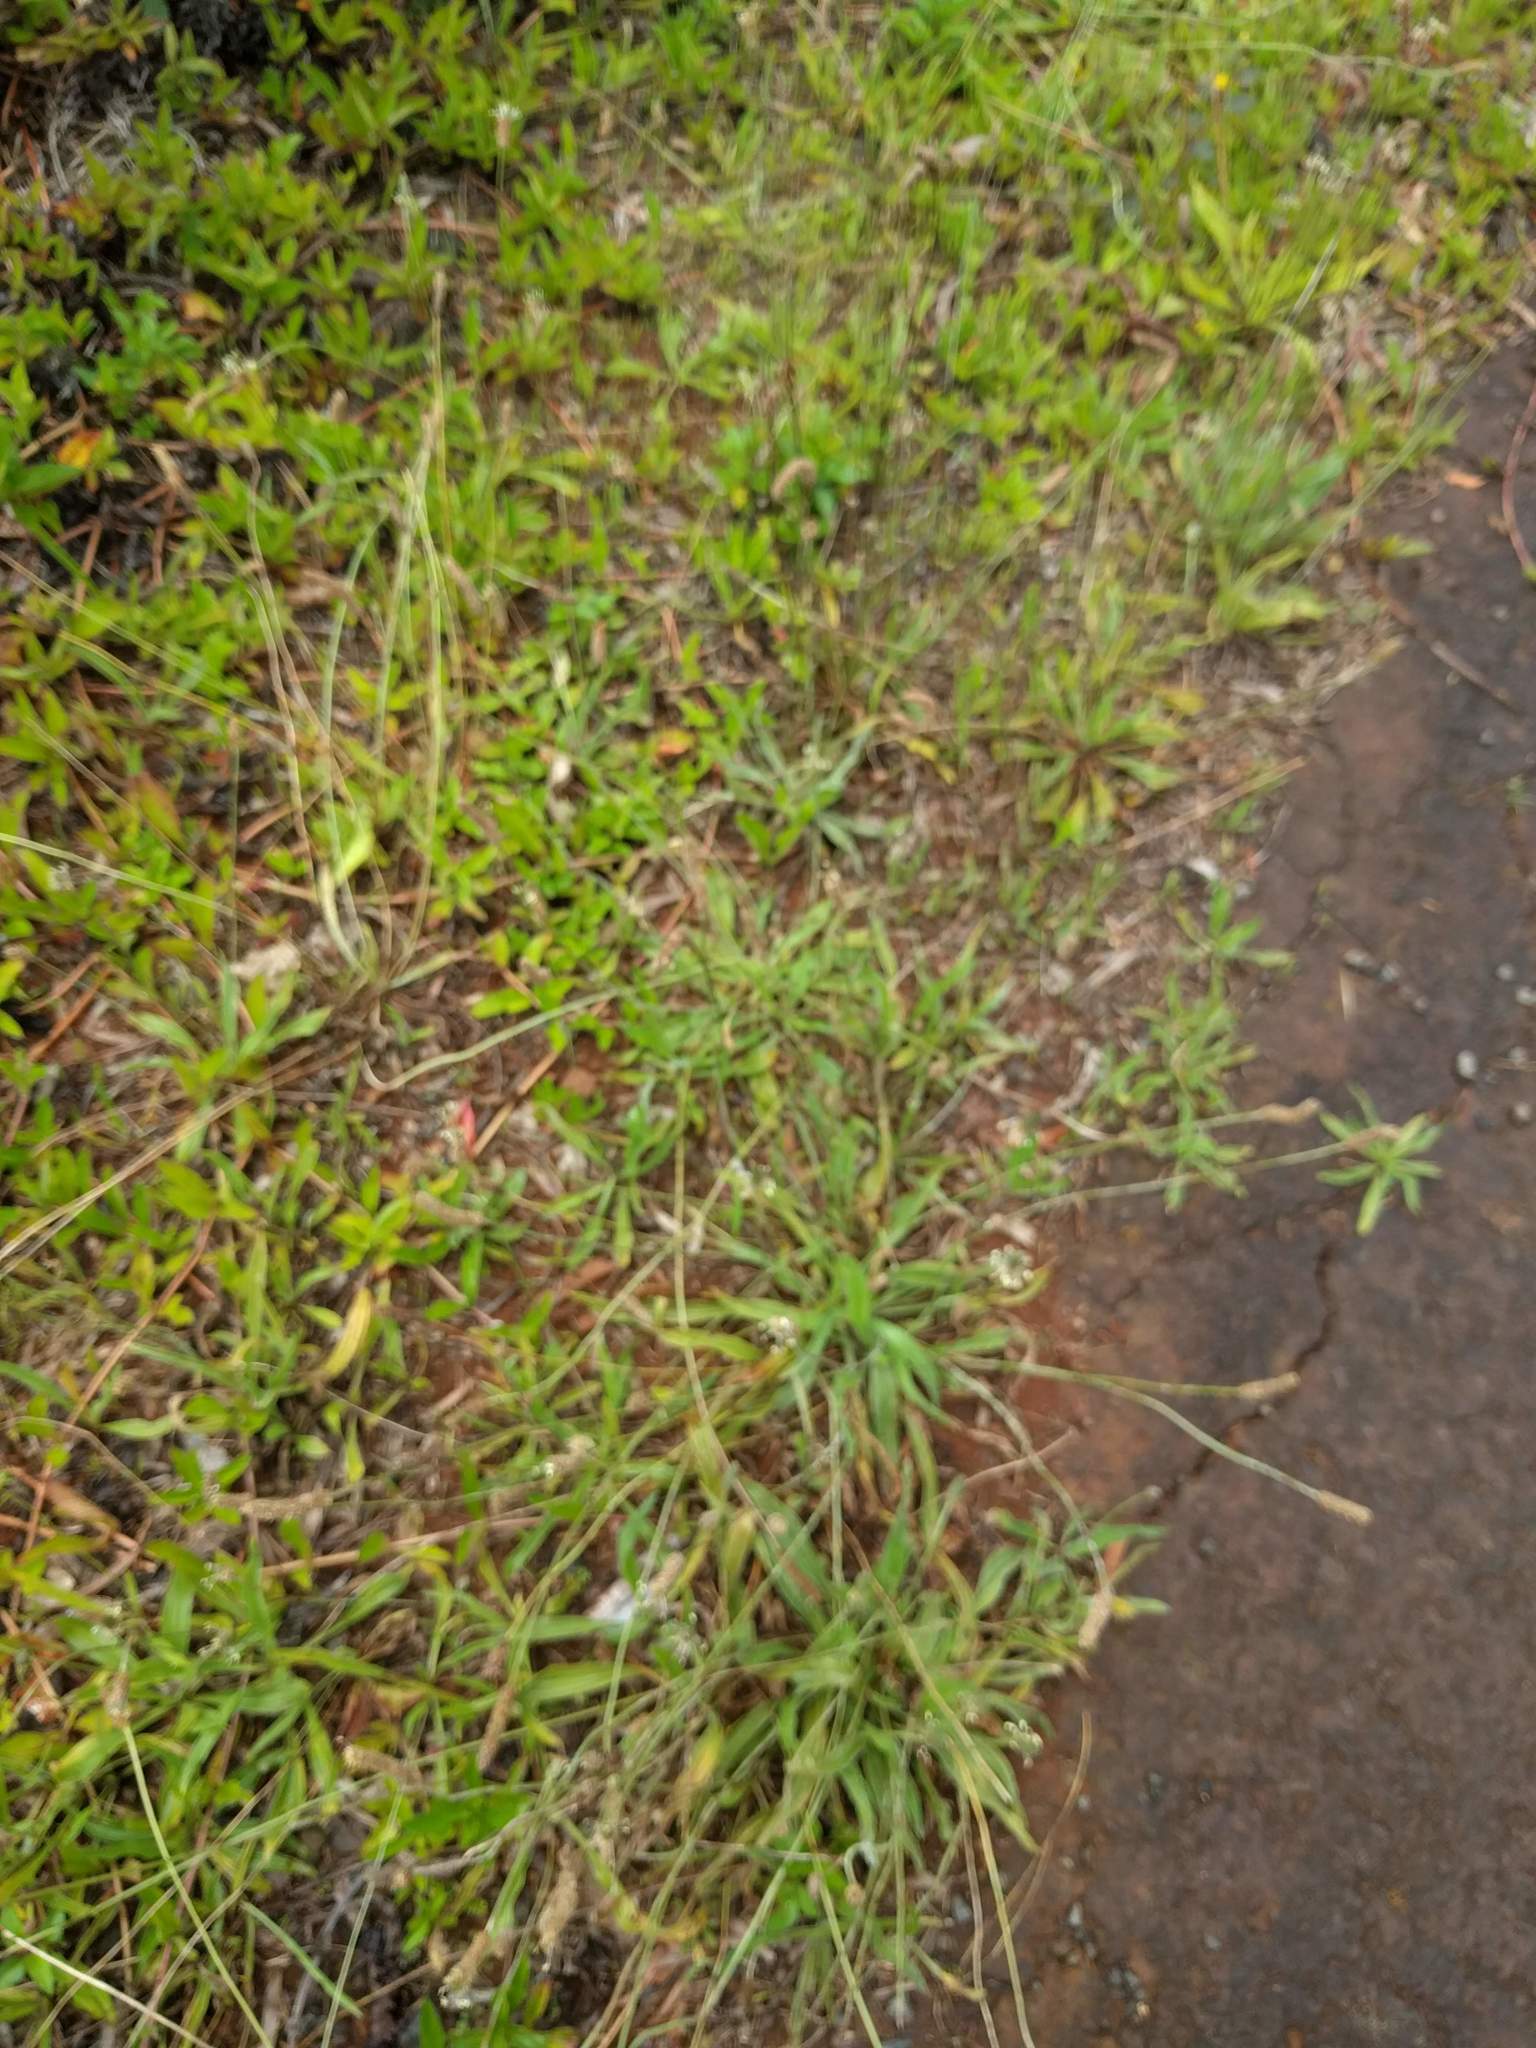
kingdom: Plantae
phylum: Tracheophyta
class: Magnoliopsida
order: Lamiales
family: Plantaginaceae
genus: Plantago
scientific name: Plantago lanceolata
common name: Ribwort plantain
